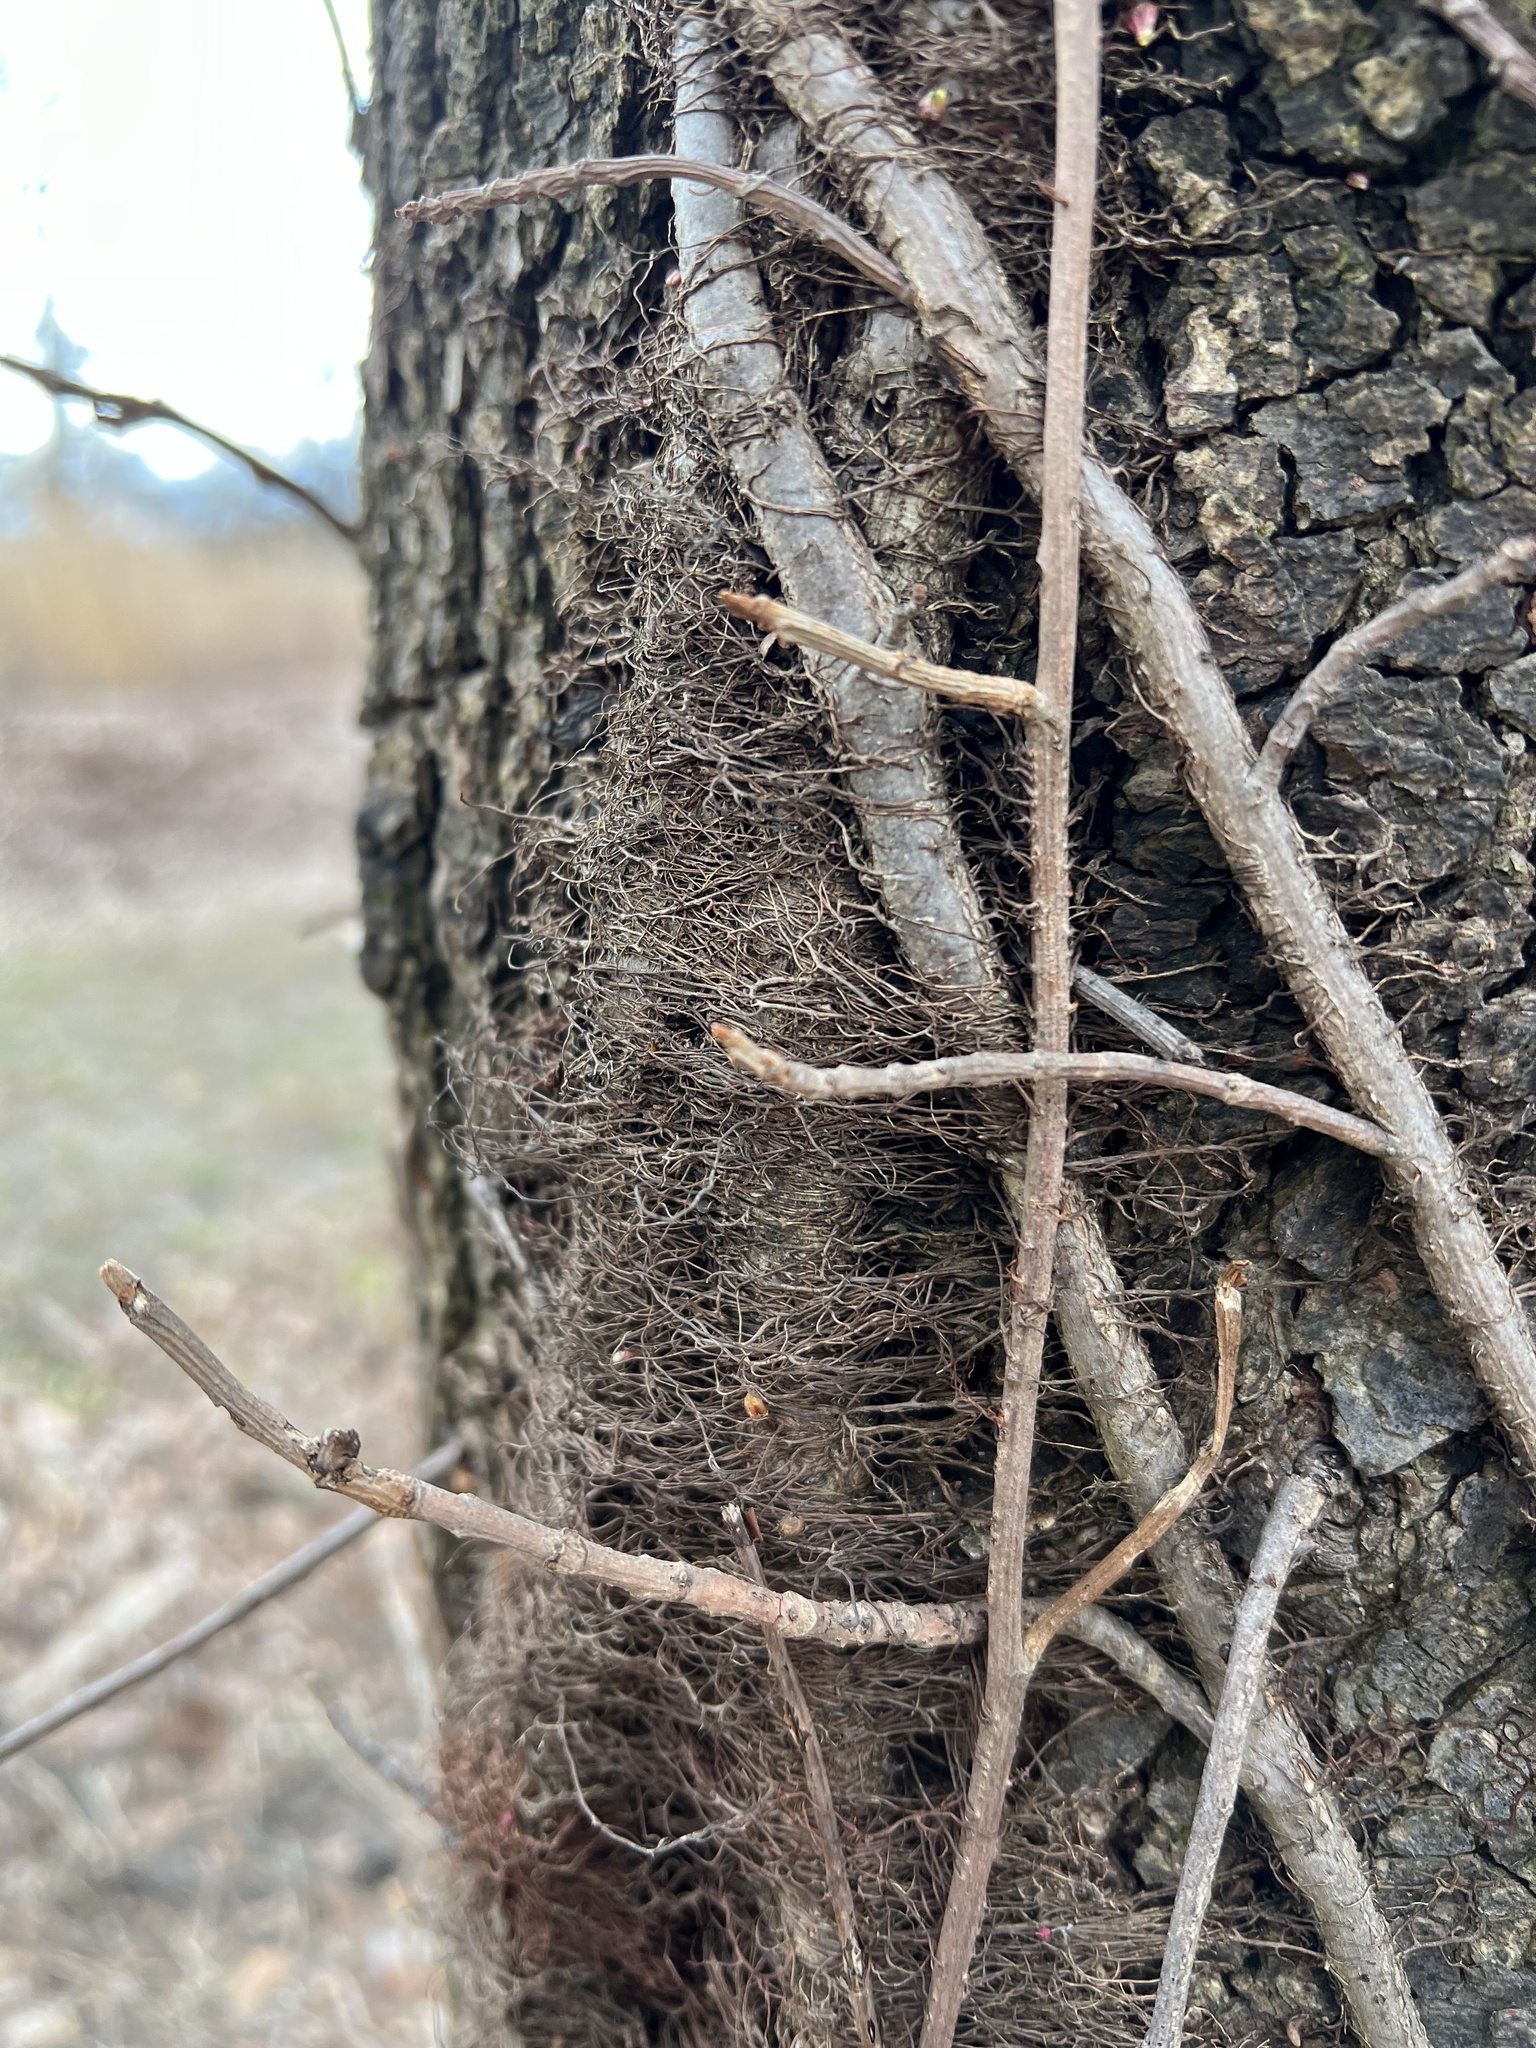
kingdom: Plantae
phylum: Tracheophyta
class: Magnoliopsida
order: Sapindales
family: Anacardiaceae
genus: Toxicodendron
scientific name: Toxicodendron radicans
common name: Poison ivy
